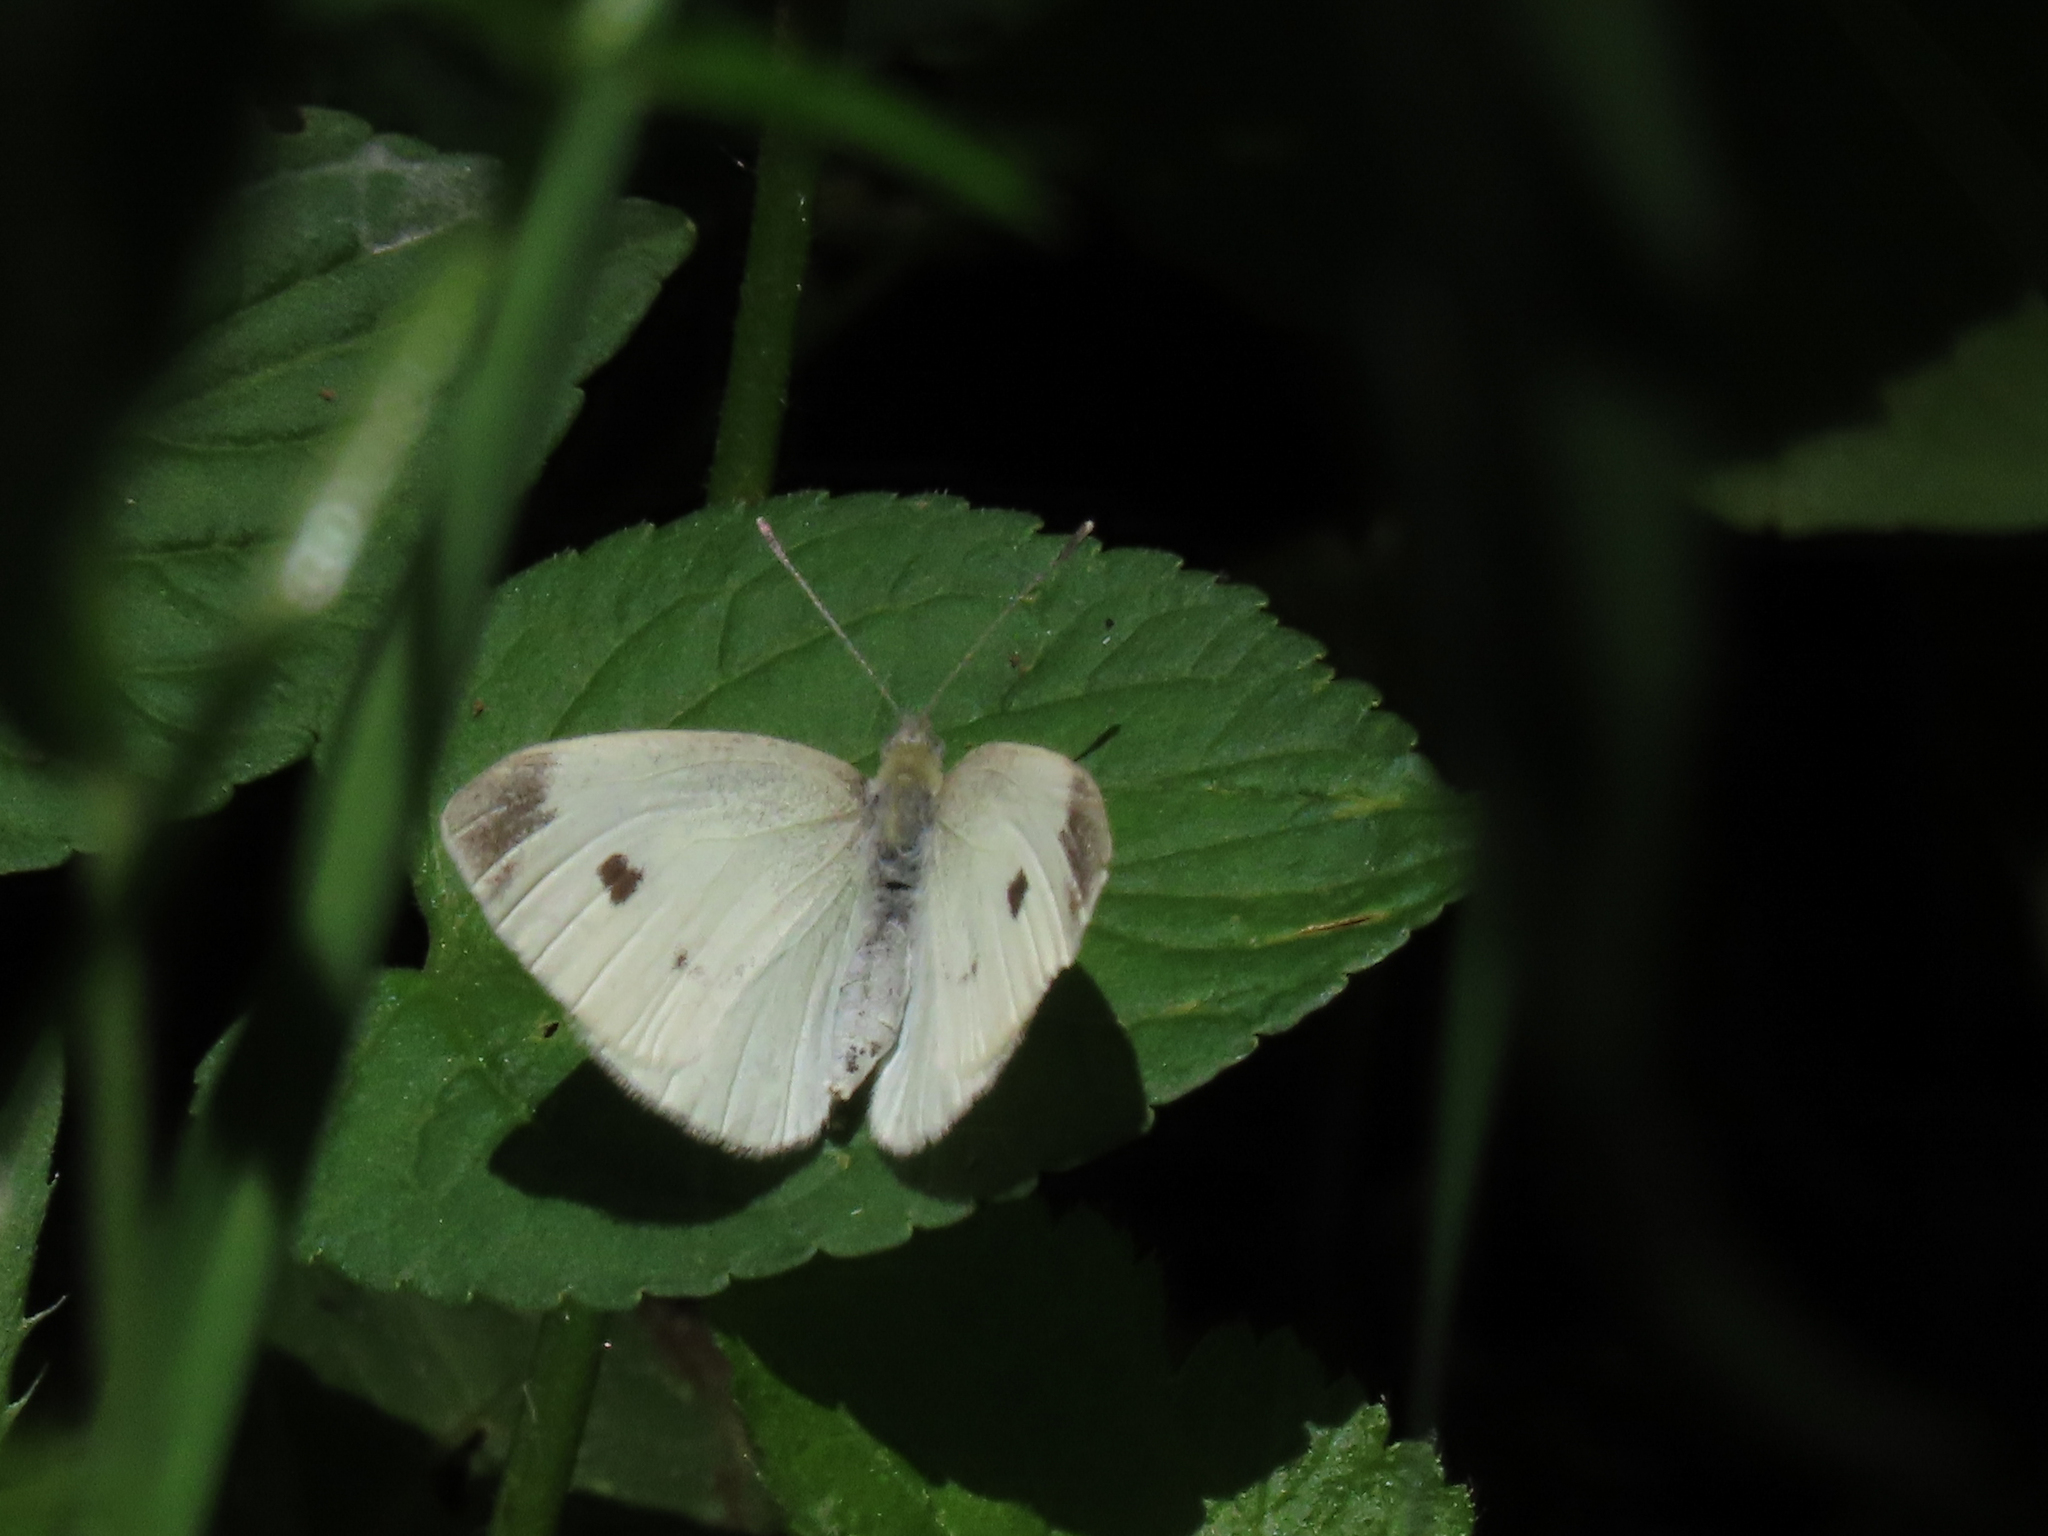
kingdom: Animalia
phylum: Arthropoda
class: Insecta
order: Lepidoptera
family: Pieridae
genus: Pieris
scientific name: Pieris rapae
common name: Small white
